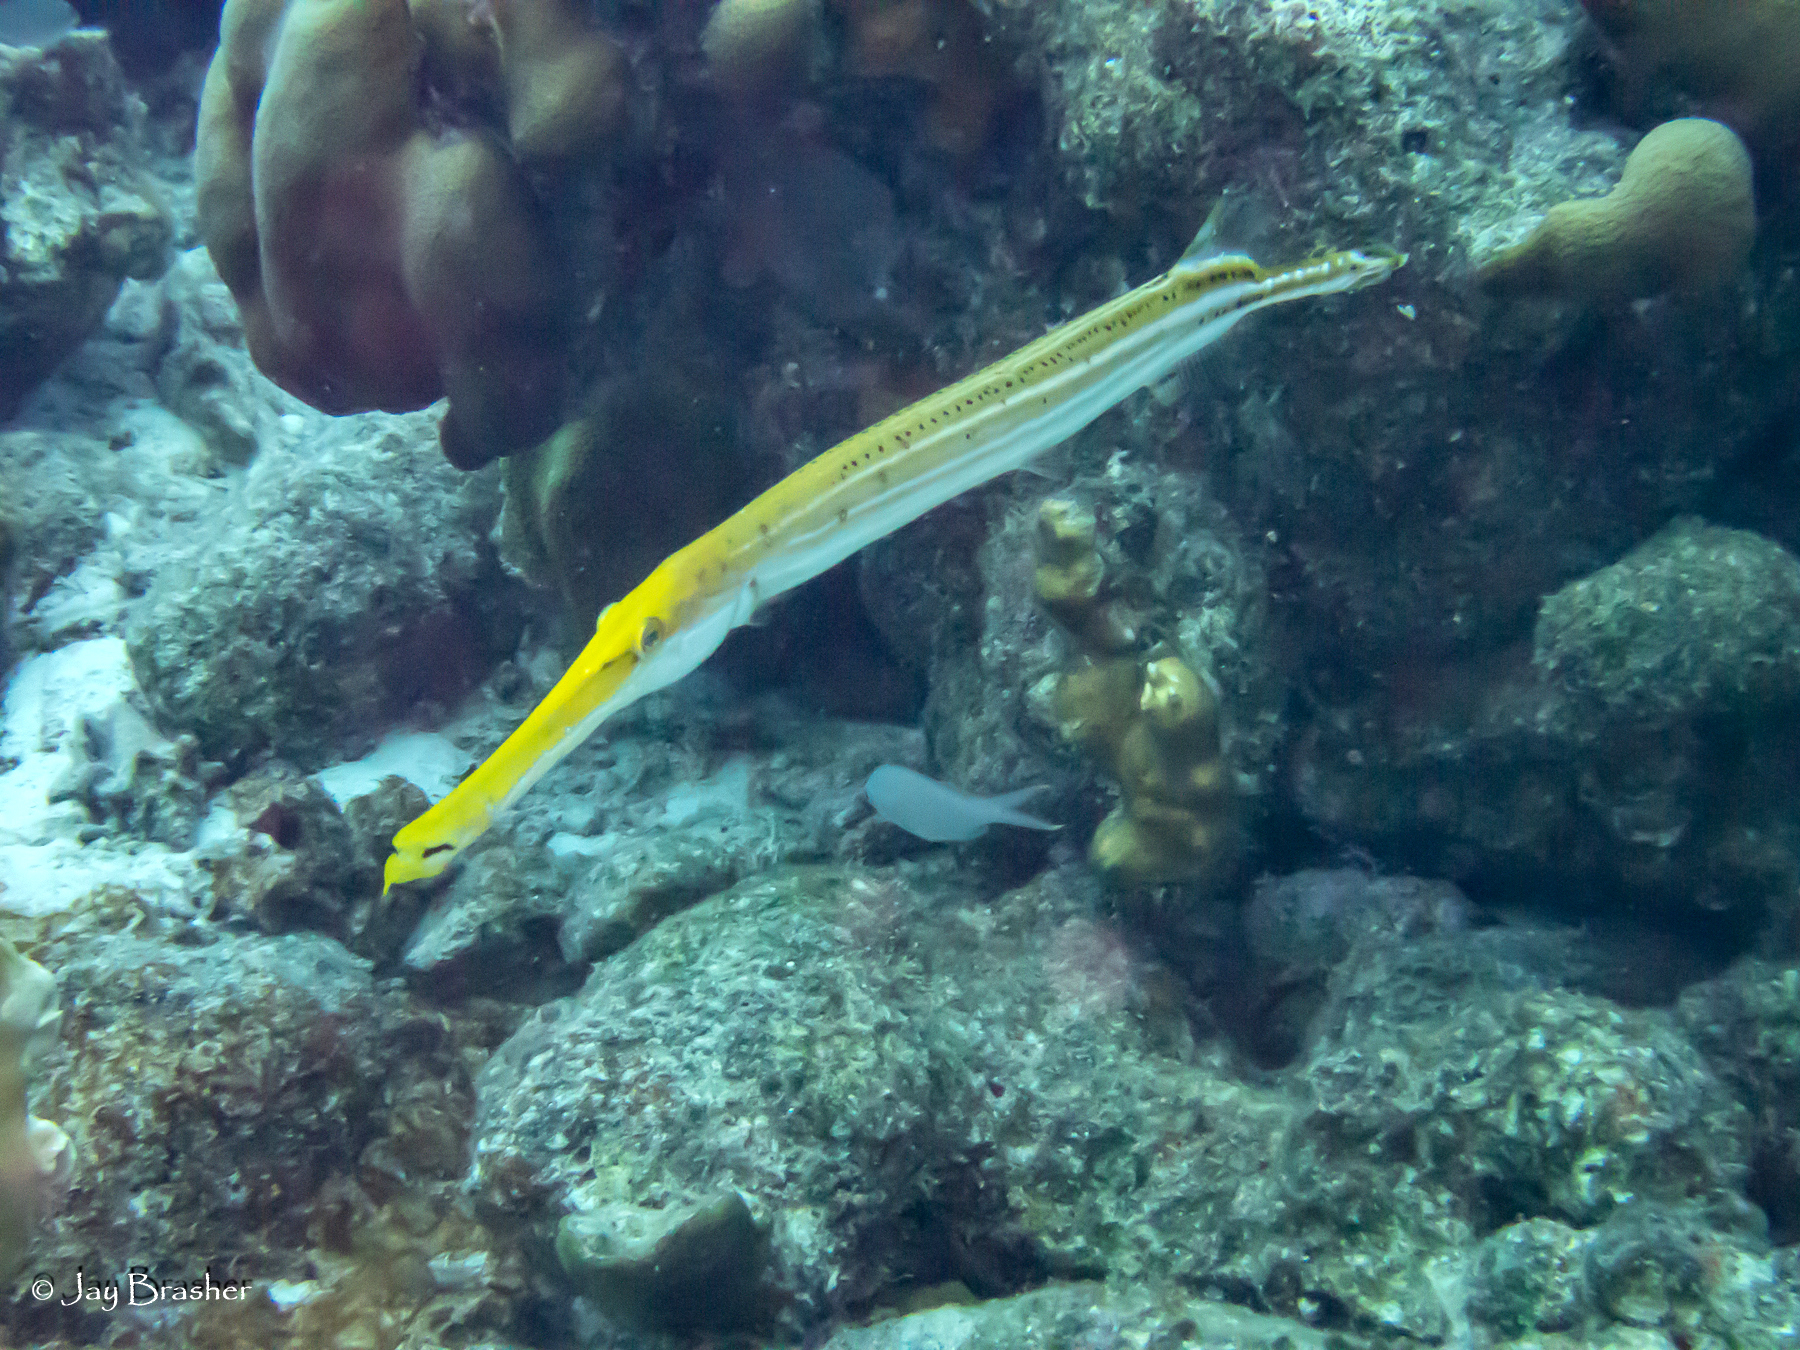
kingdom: Animalia
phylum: Chordata
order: Syngnathiformes
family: Aulostomidae
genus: Aulostomus
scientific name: Aulostomus maculatus
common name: West atlantic trumpetfish
